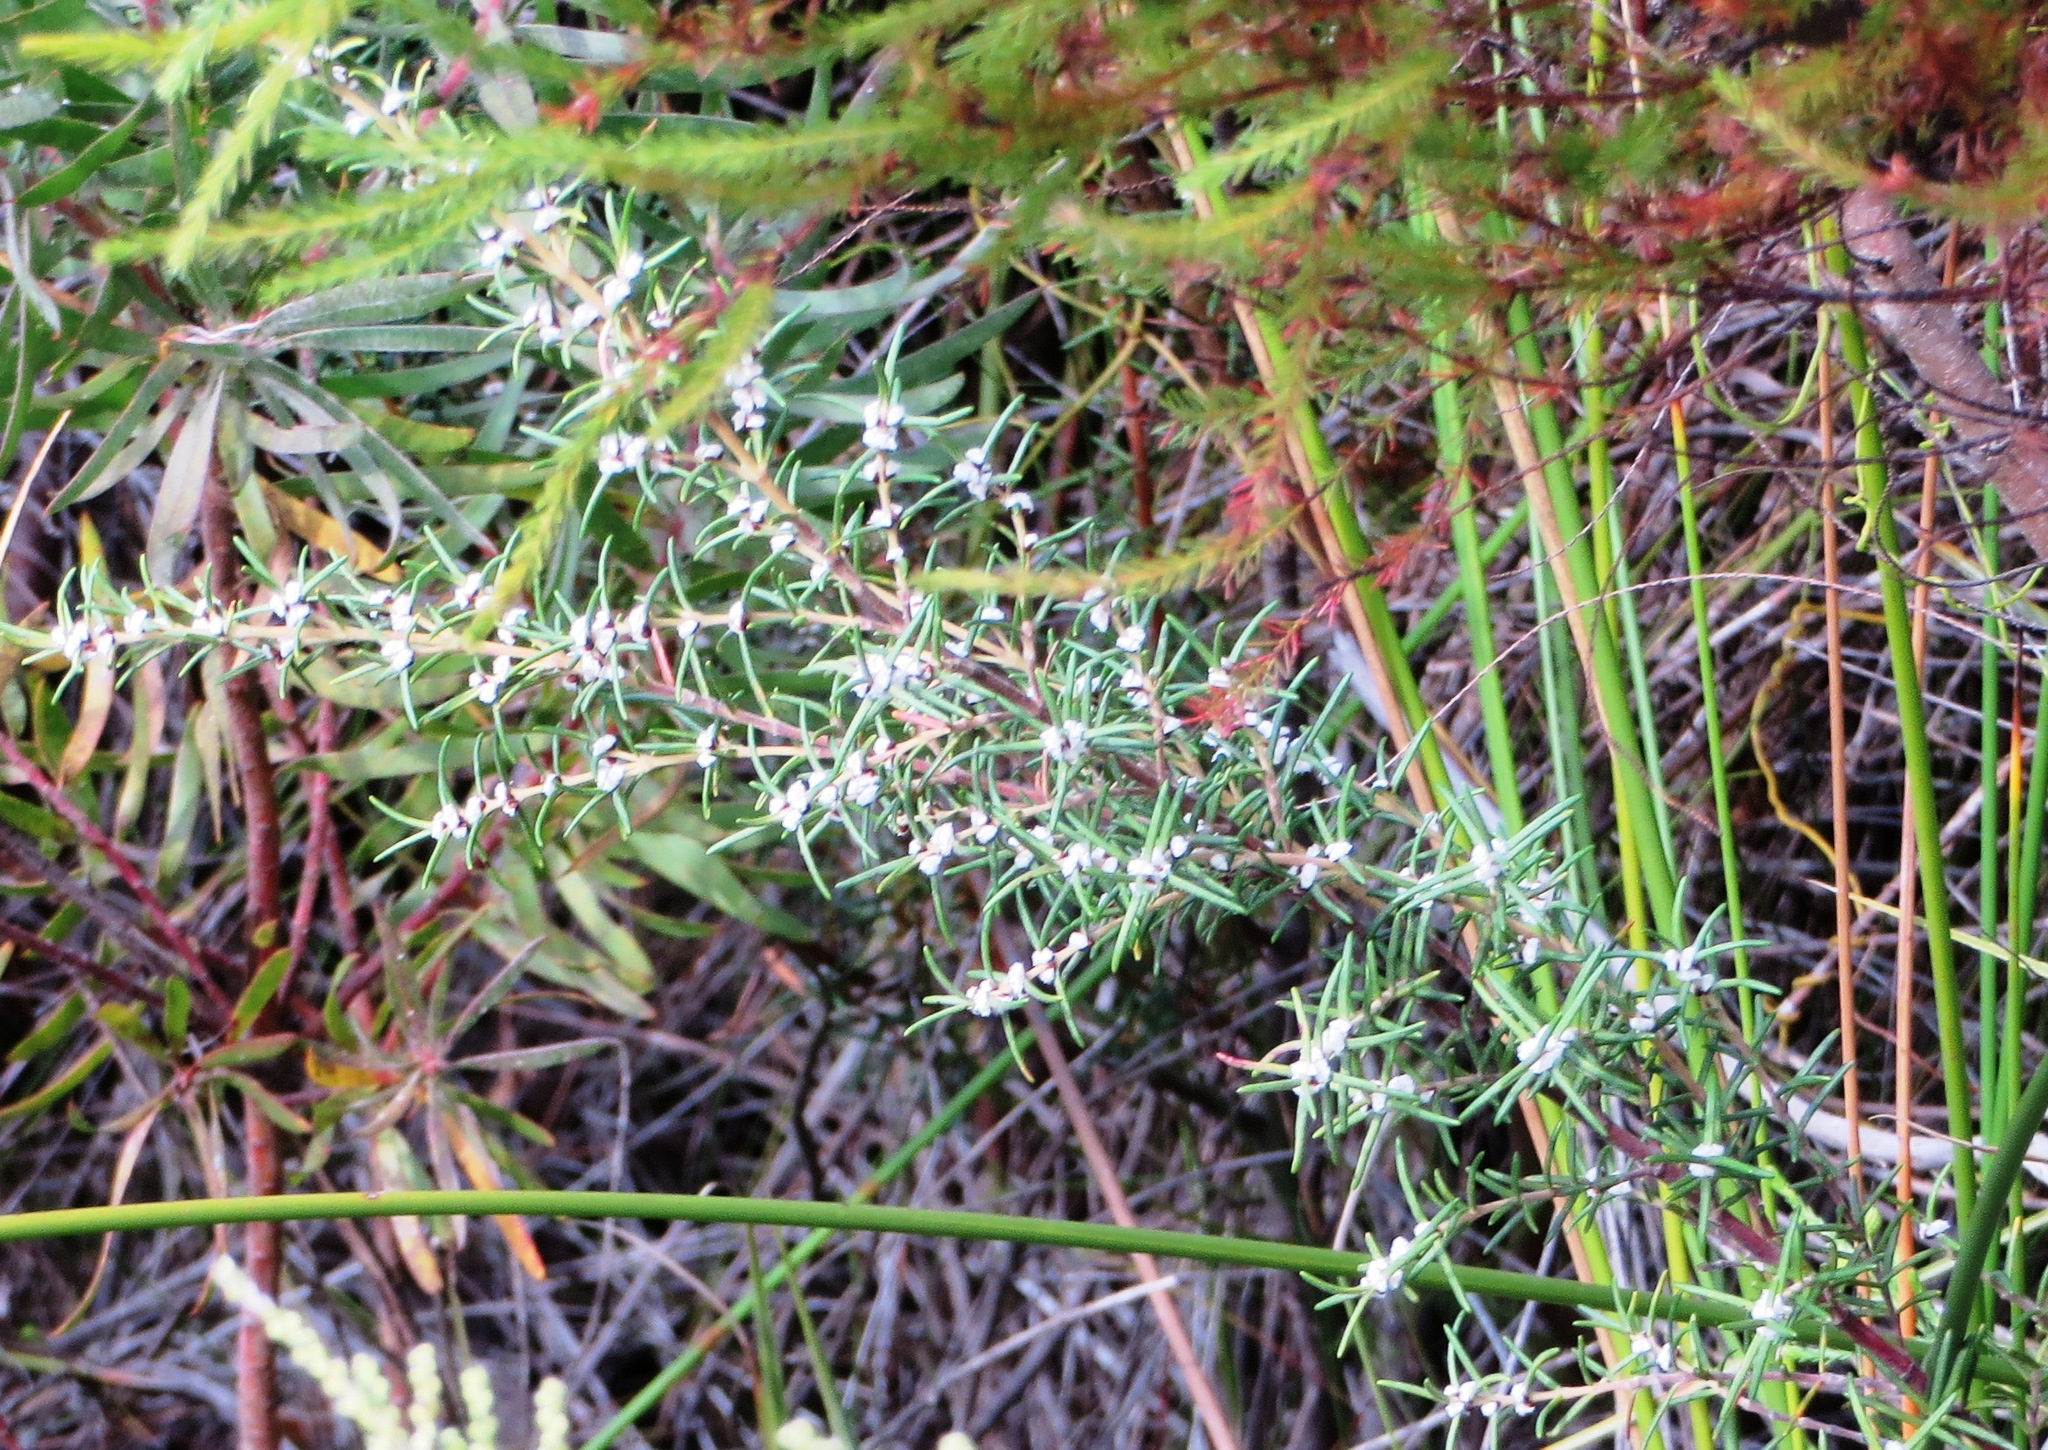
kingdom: Plantae
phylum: Tracheophyta
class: Magnoliopsida
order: Cornales
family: Grubbiaceae
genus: Grubbia
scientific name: Grubbia rosmarinifolia
